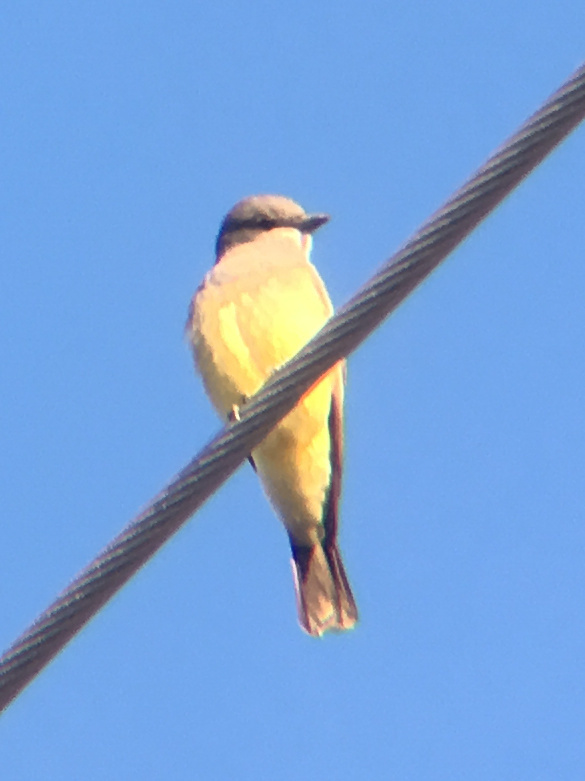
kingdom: Animalia
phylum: Chordata
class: Aves
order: Passeriformes
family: Tyrannidae
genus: Tyrannus
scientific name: Tyrannus vociferans
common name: Cassin's kingbird
